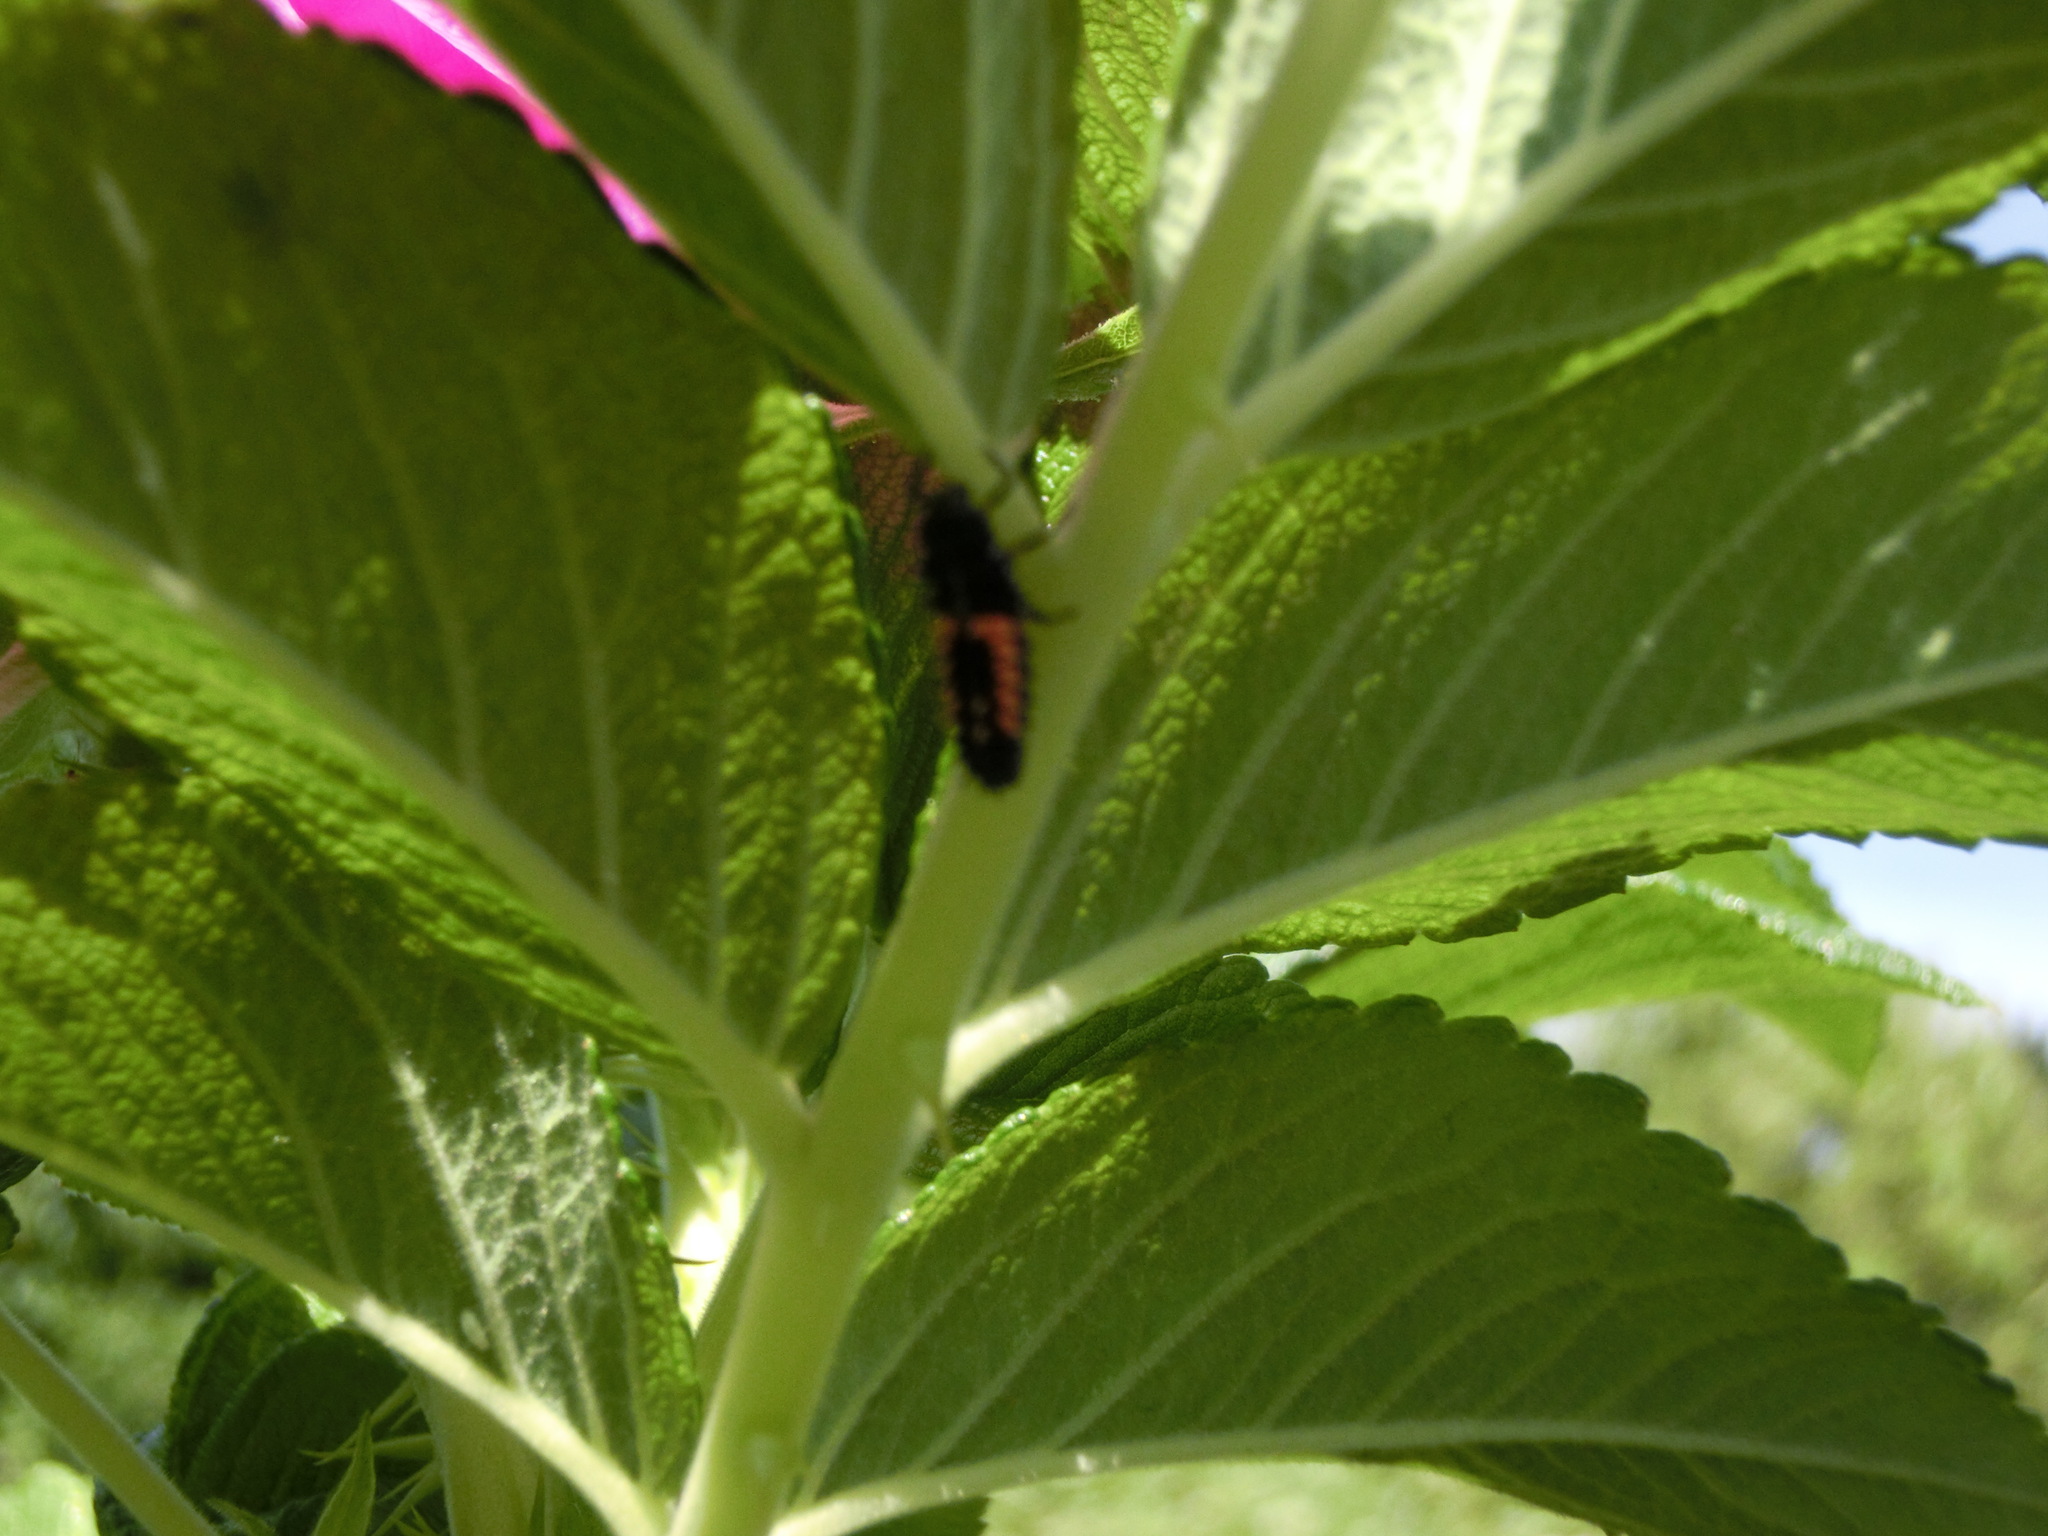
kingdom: Animalia
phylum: Arthropoda
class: Insecta
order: Coleoptera
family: Coccinellidae
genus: Harmonia
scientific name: Harmonia axyridis
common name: Harlequin ladybird
